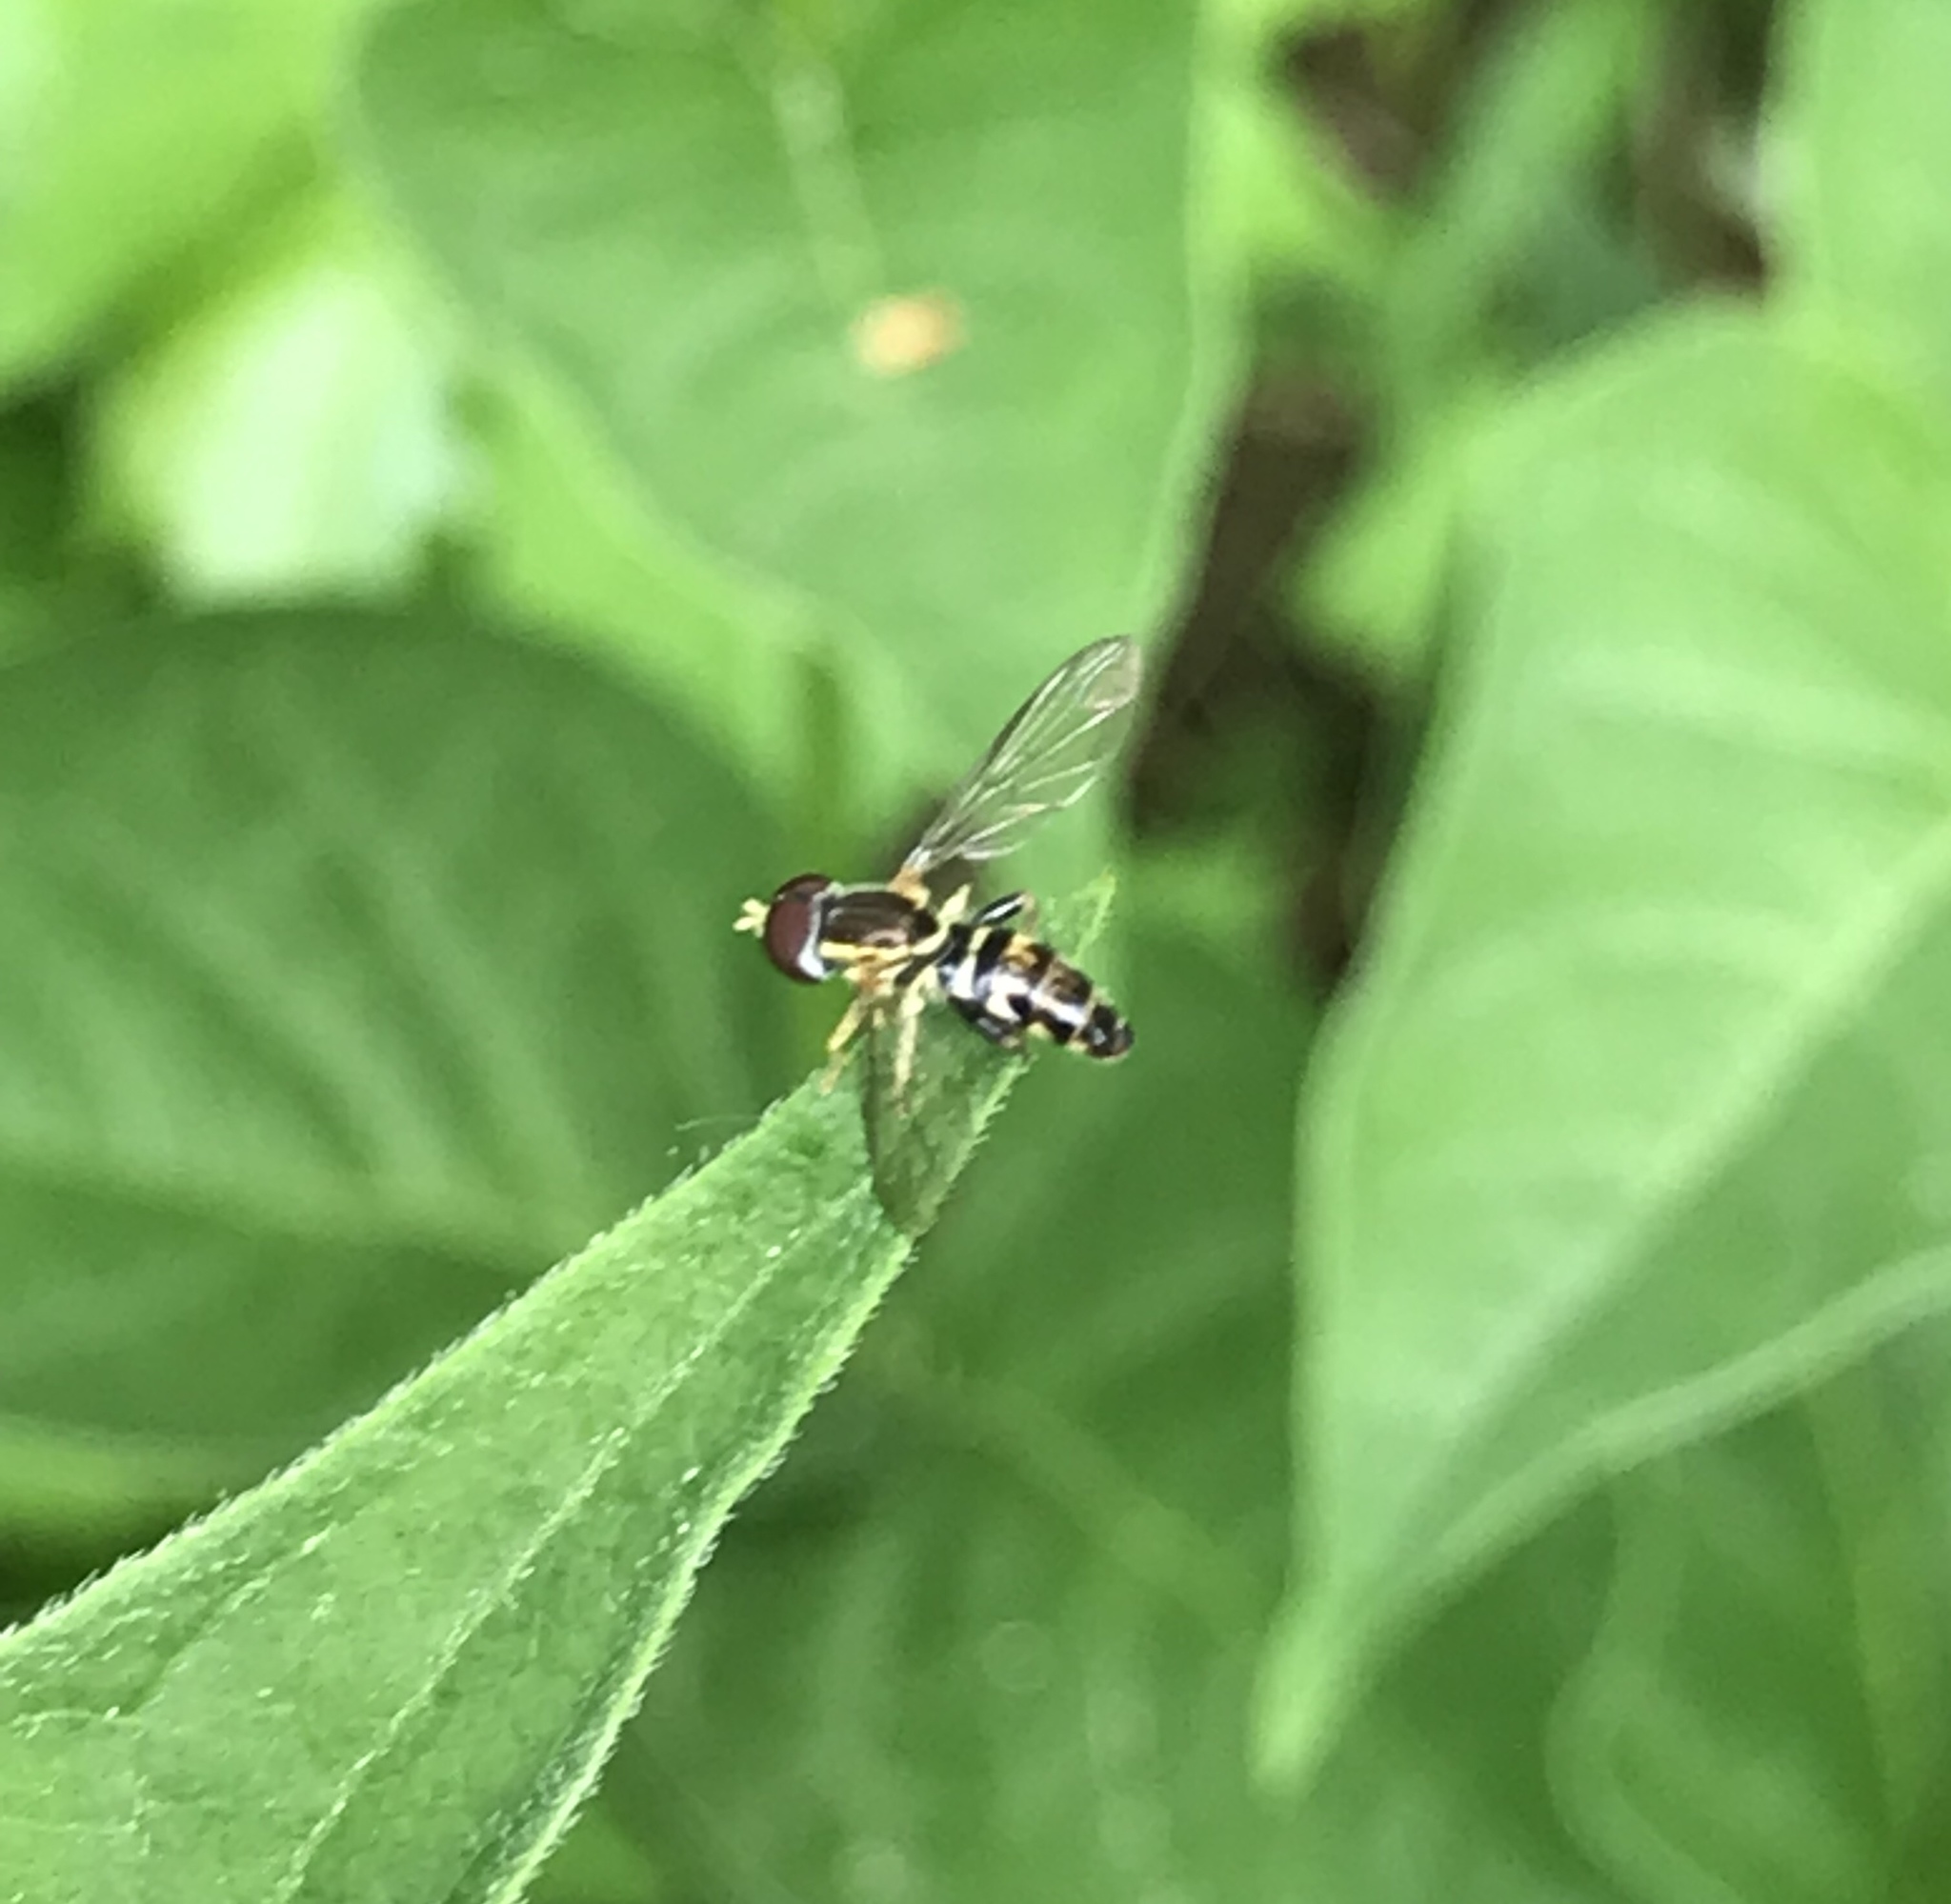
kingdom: Animalia
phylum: Arthropoda
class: Insecta
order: Diptera
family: Syrphidae
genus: Toxomerus
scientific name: Toxomerus geminatus
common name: Eastern calligrapher
